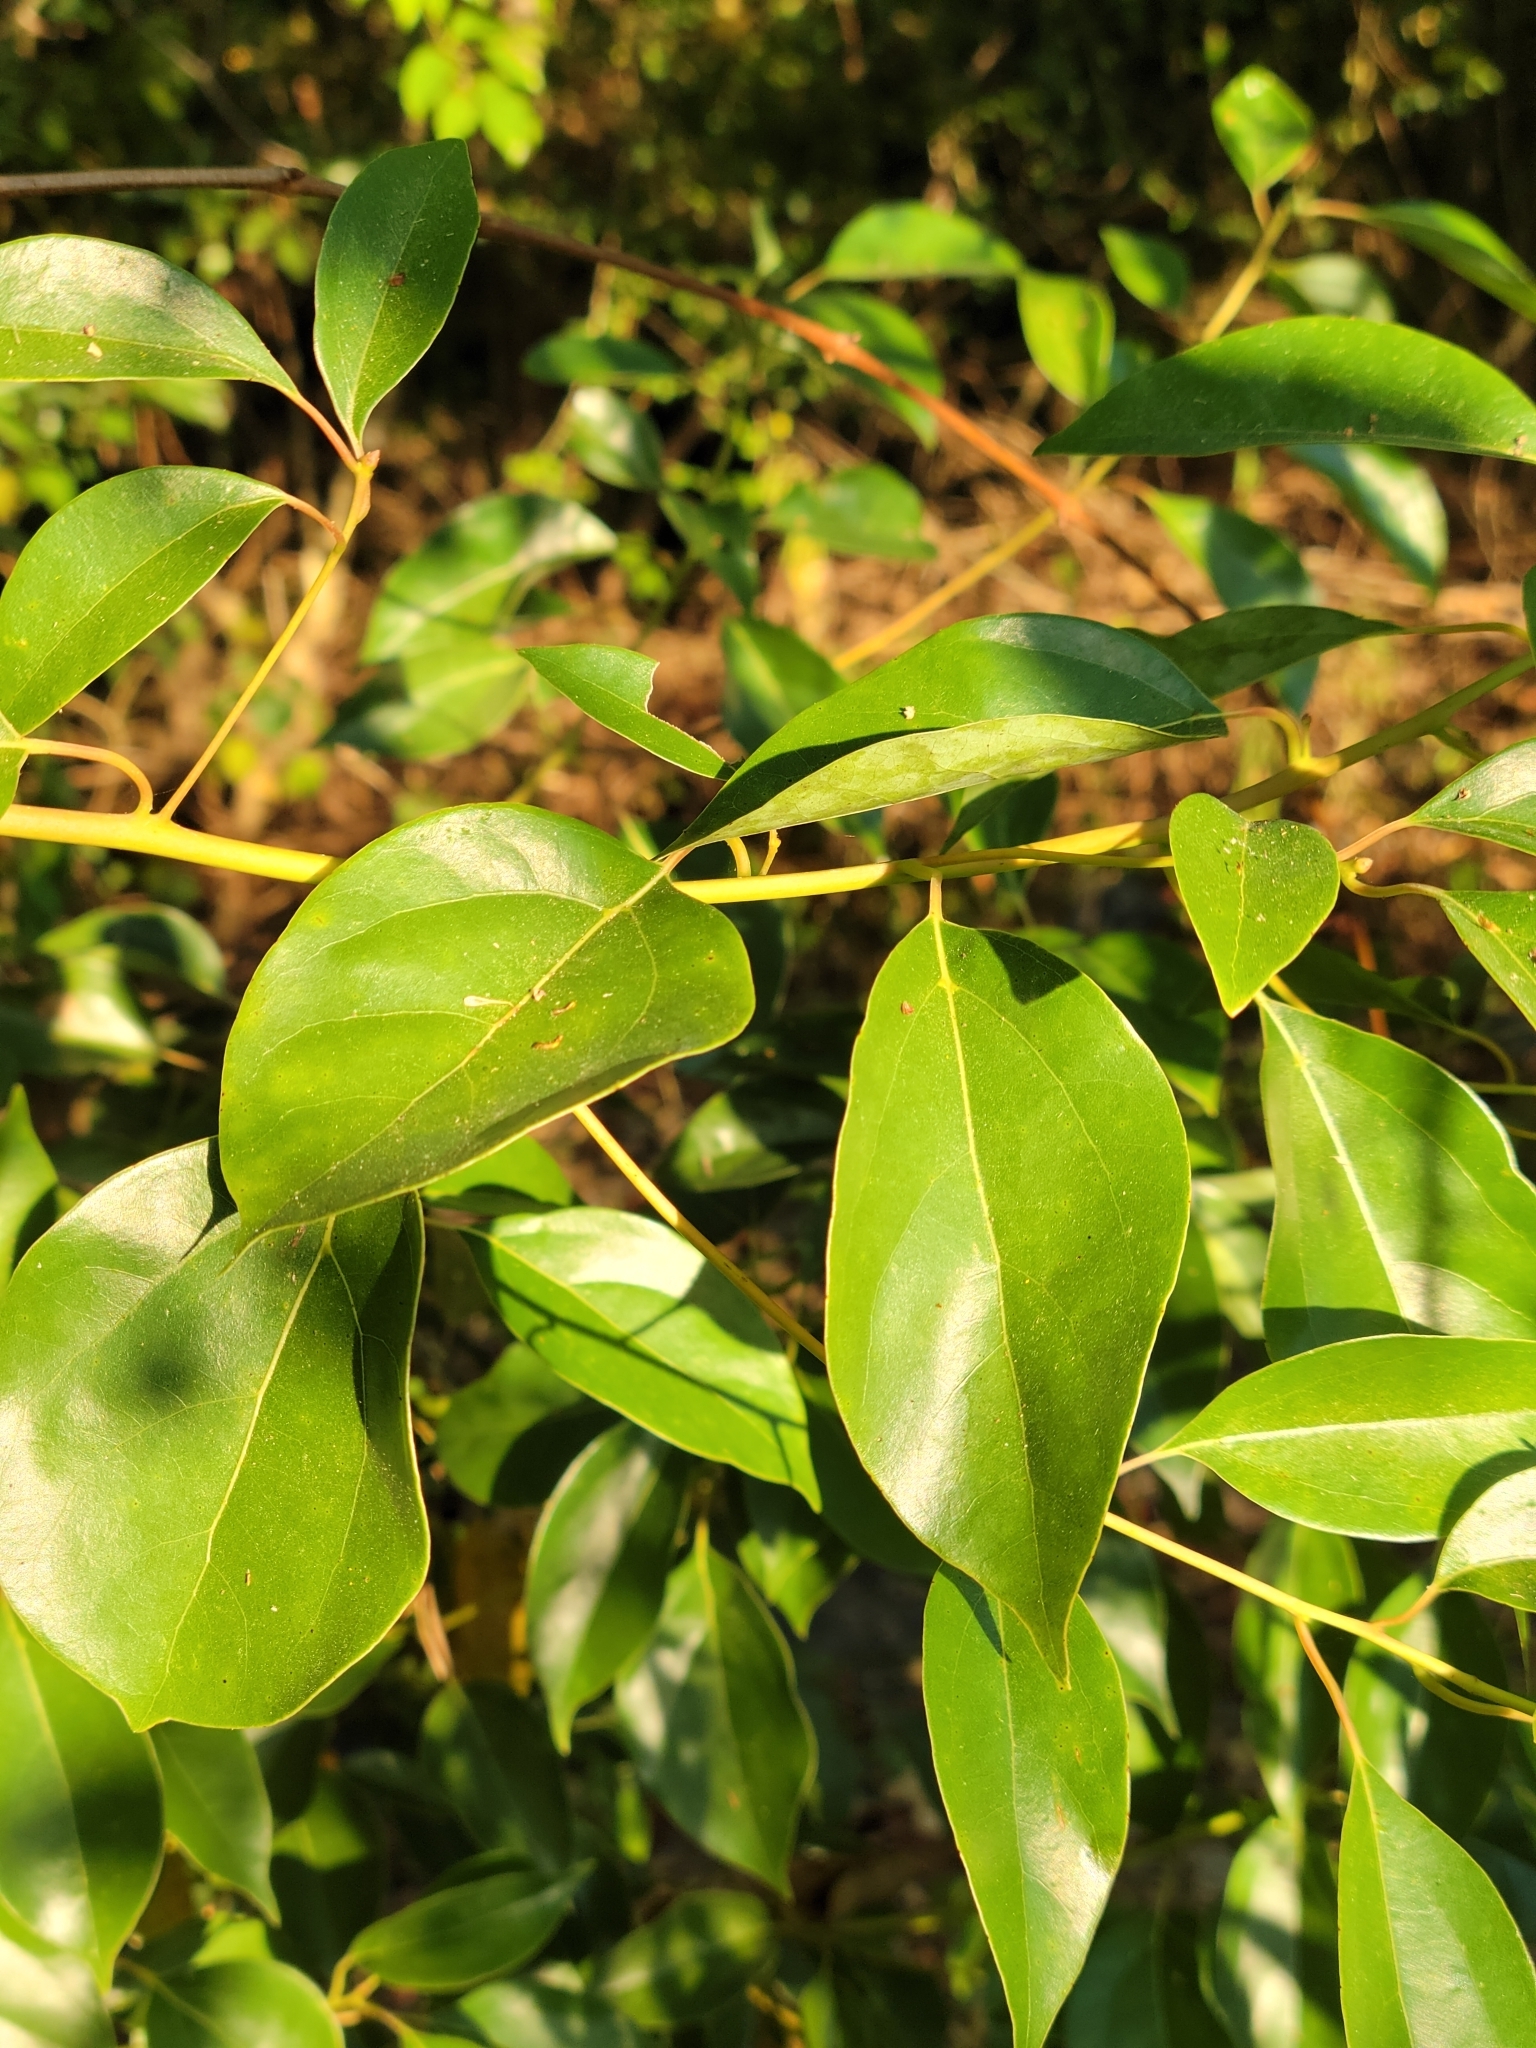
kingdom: Plantae
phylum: Tracheophyta
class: Magnoliopsida
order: Laurales
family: Lauraceae
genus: Cinnamomum
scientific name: Cinnamomum camphora
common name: Camphortree
